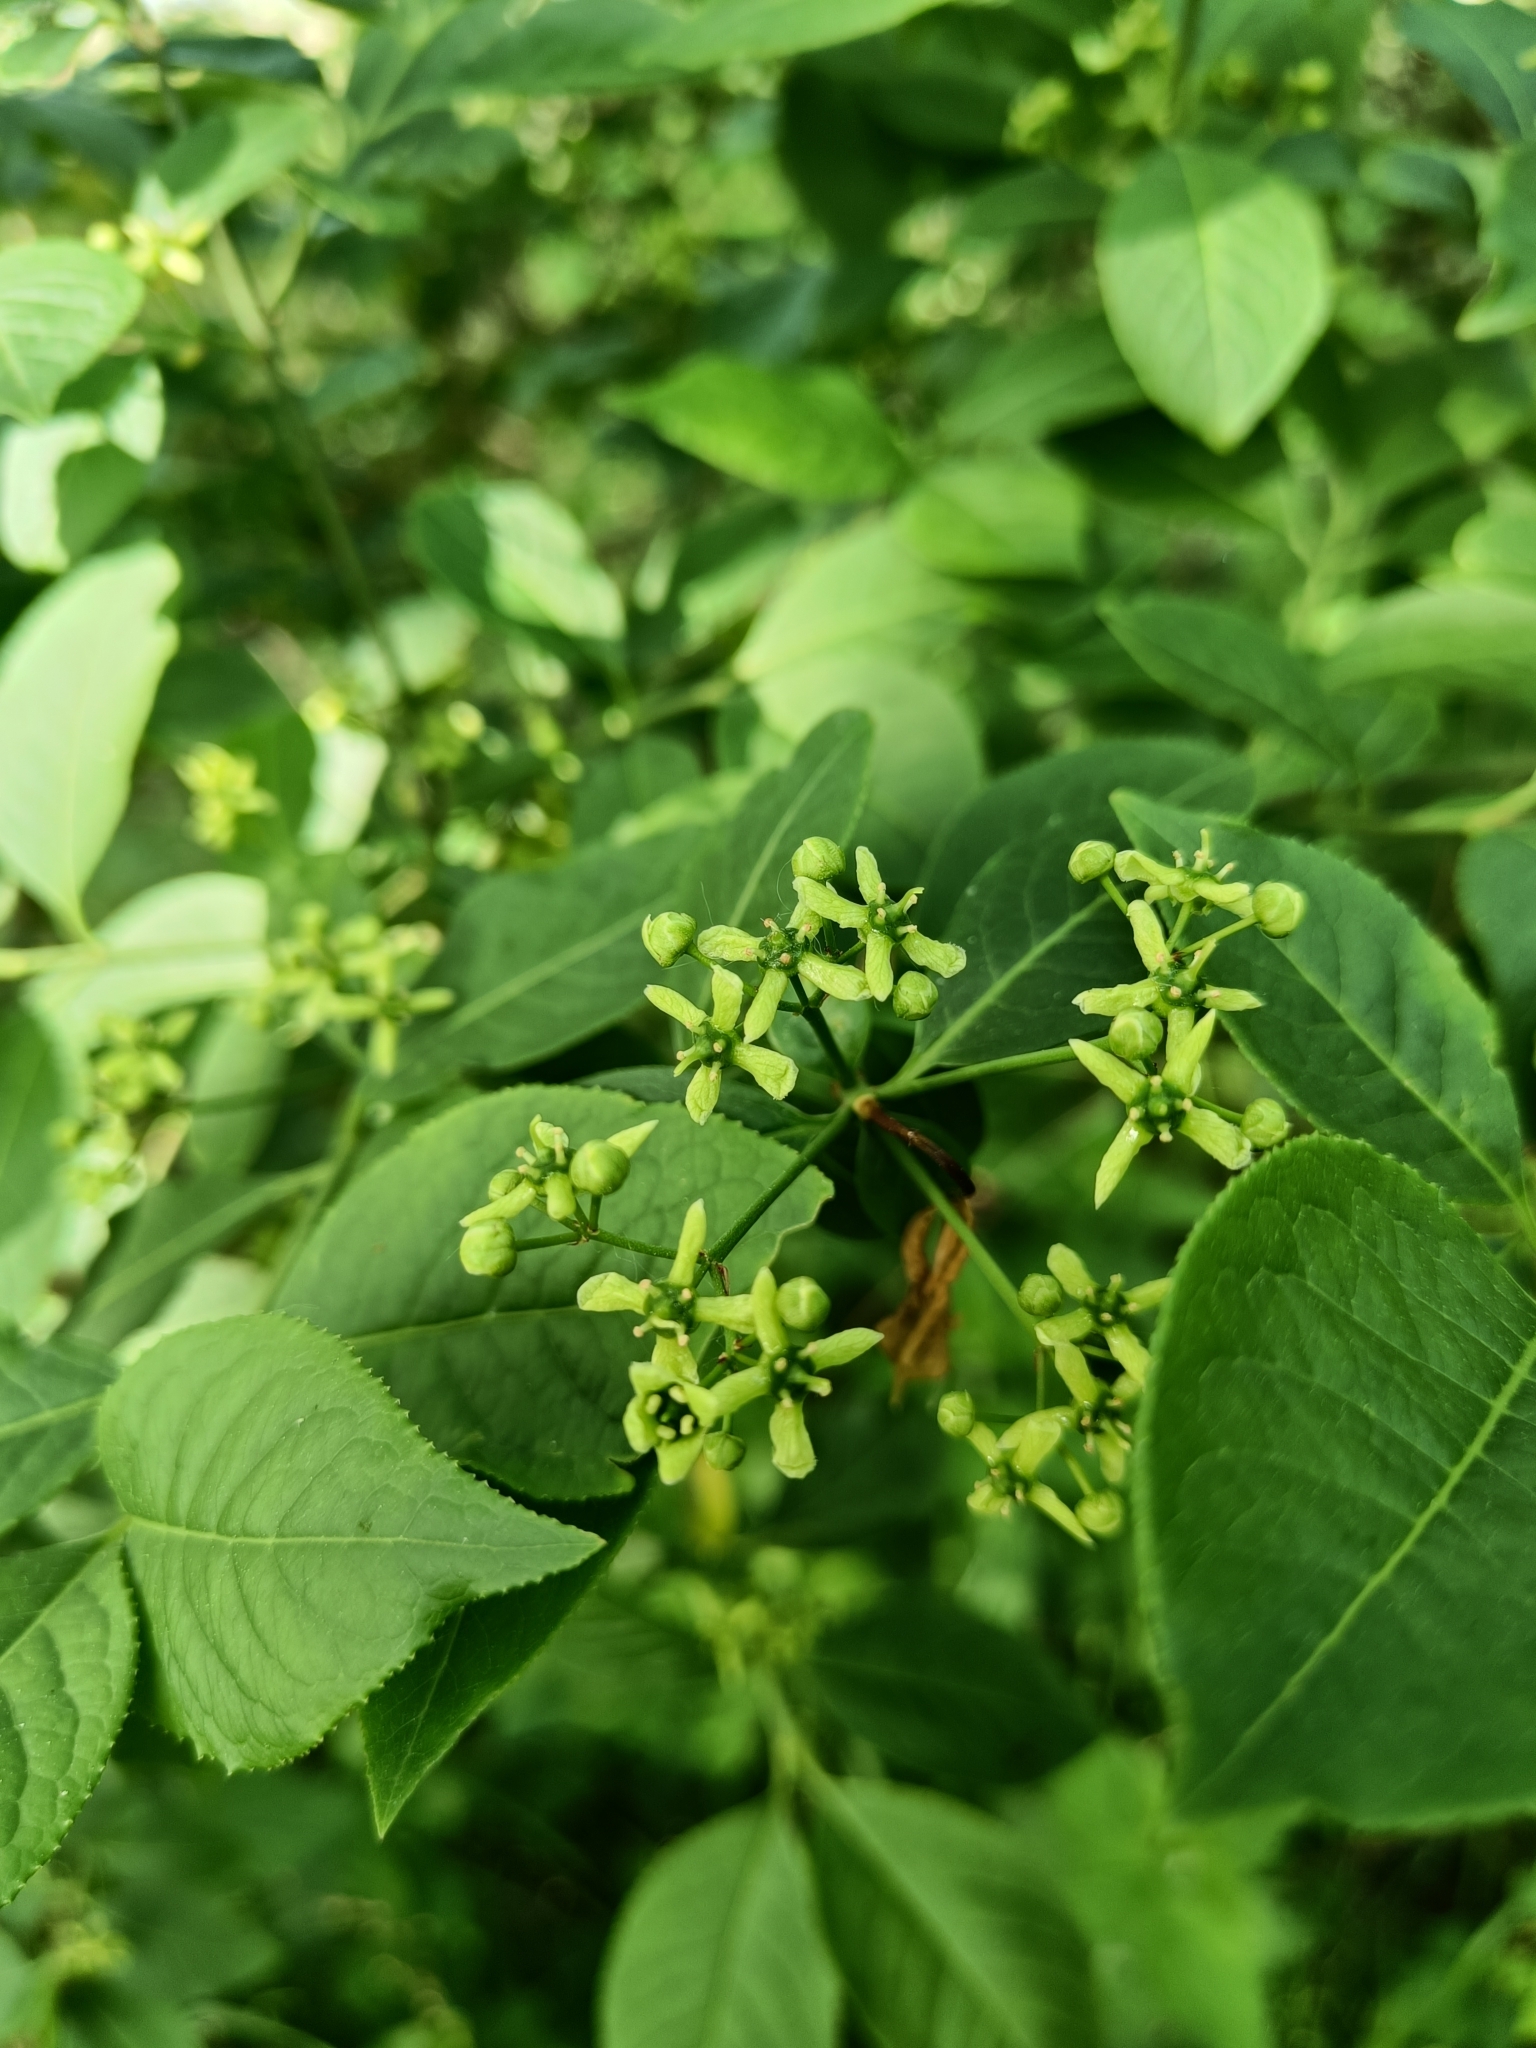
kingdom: Plantae
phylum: Tracheophyta
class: Magnoliopsida
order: Celastrales
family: Celastraceae
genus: Euonymus
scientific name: Euonymus europaeus
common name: Spindle
